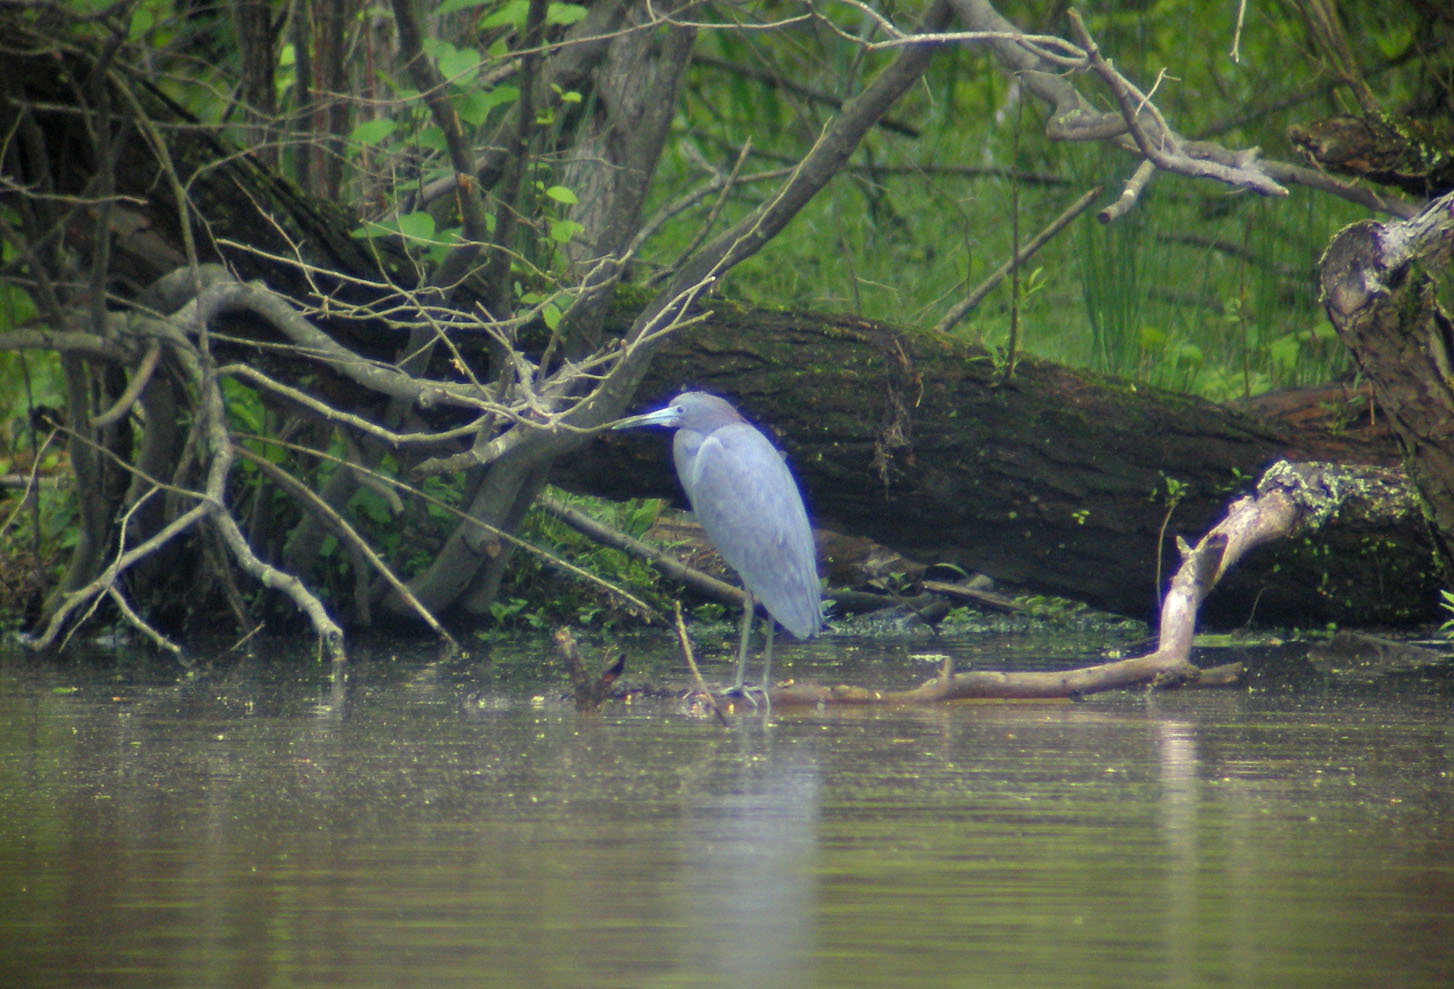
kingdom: Animalia
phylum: Chordata
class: Aves
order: Pelecaniformes
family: Ardeidae
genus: Egretta
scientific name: Egretta caerulea
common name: Little blue heron
